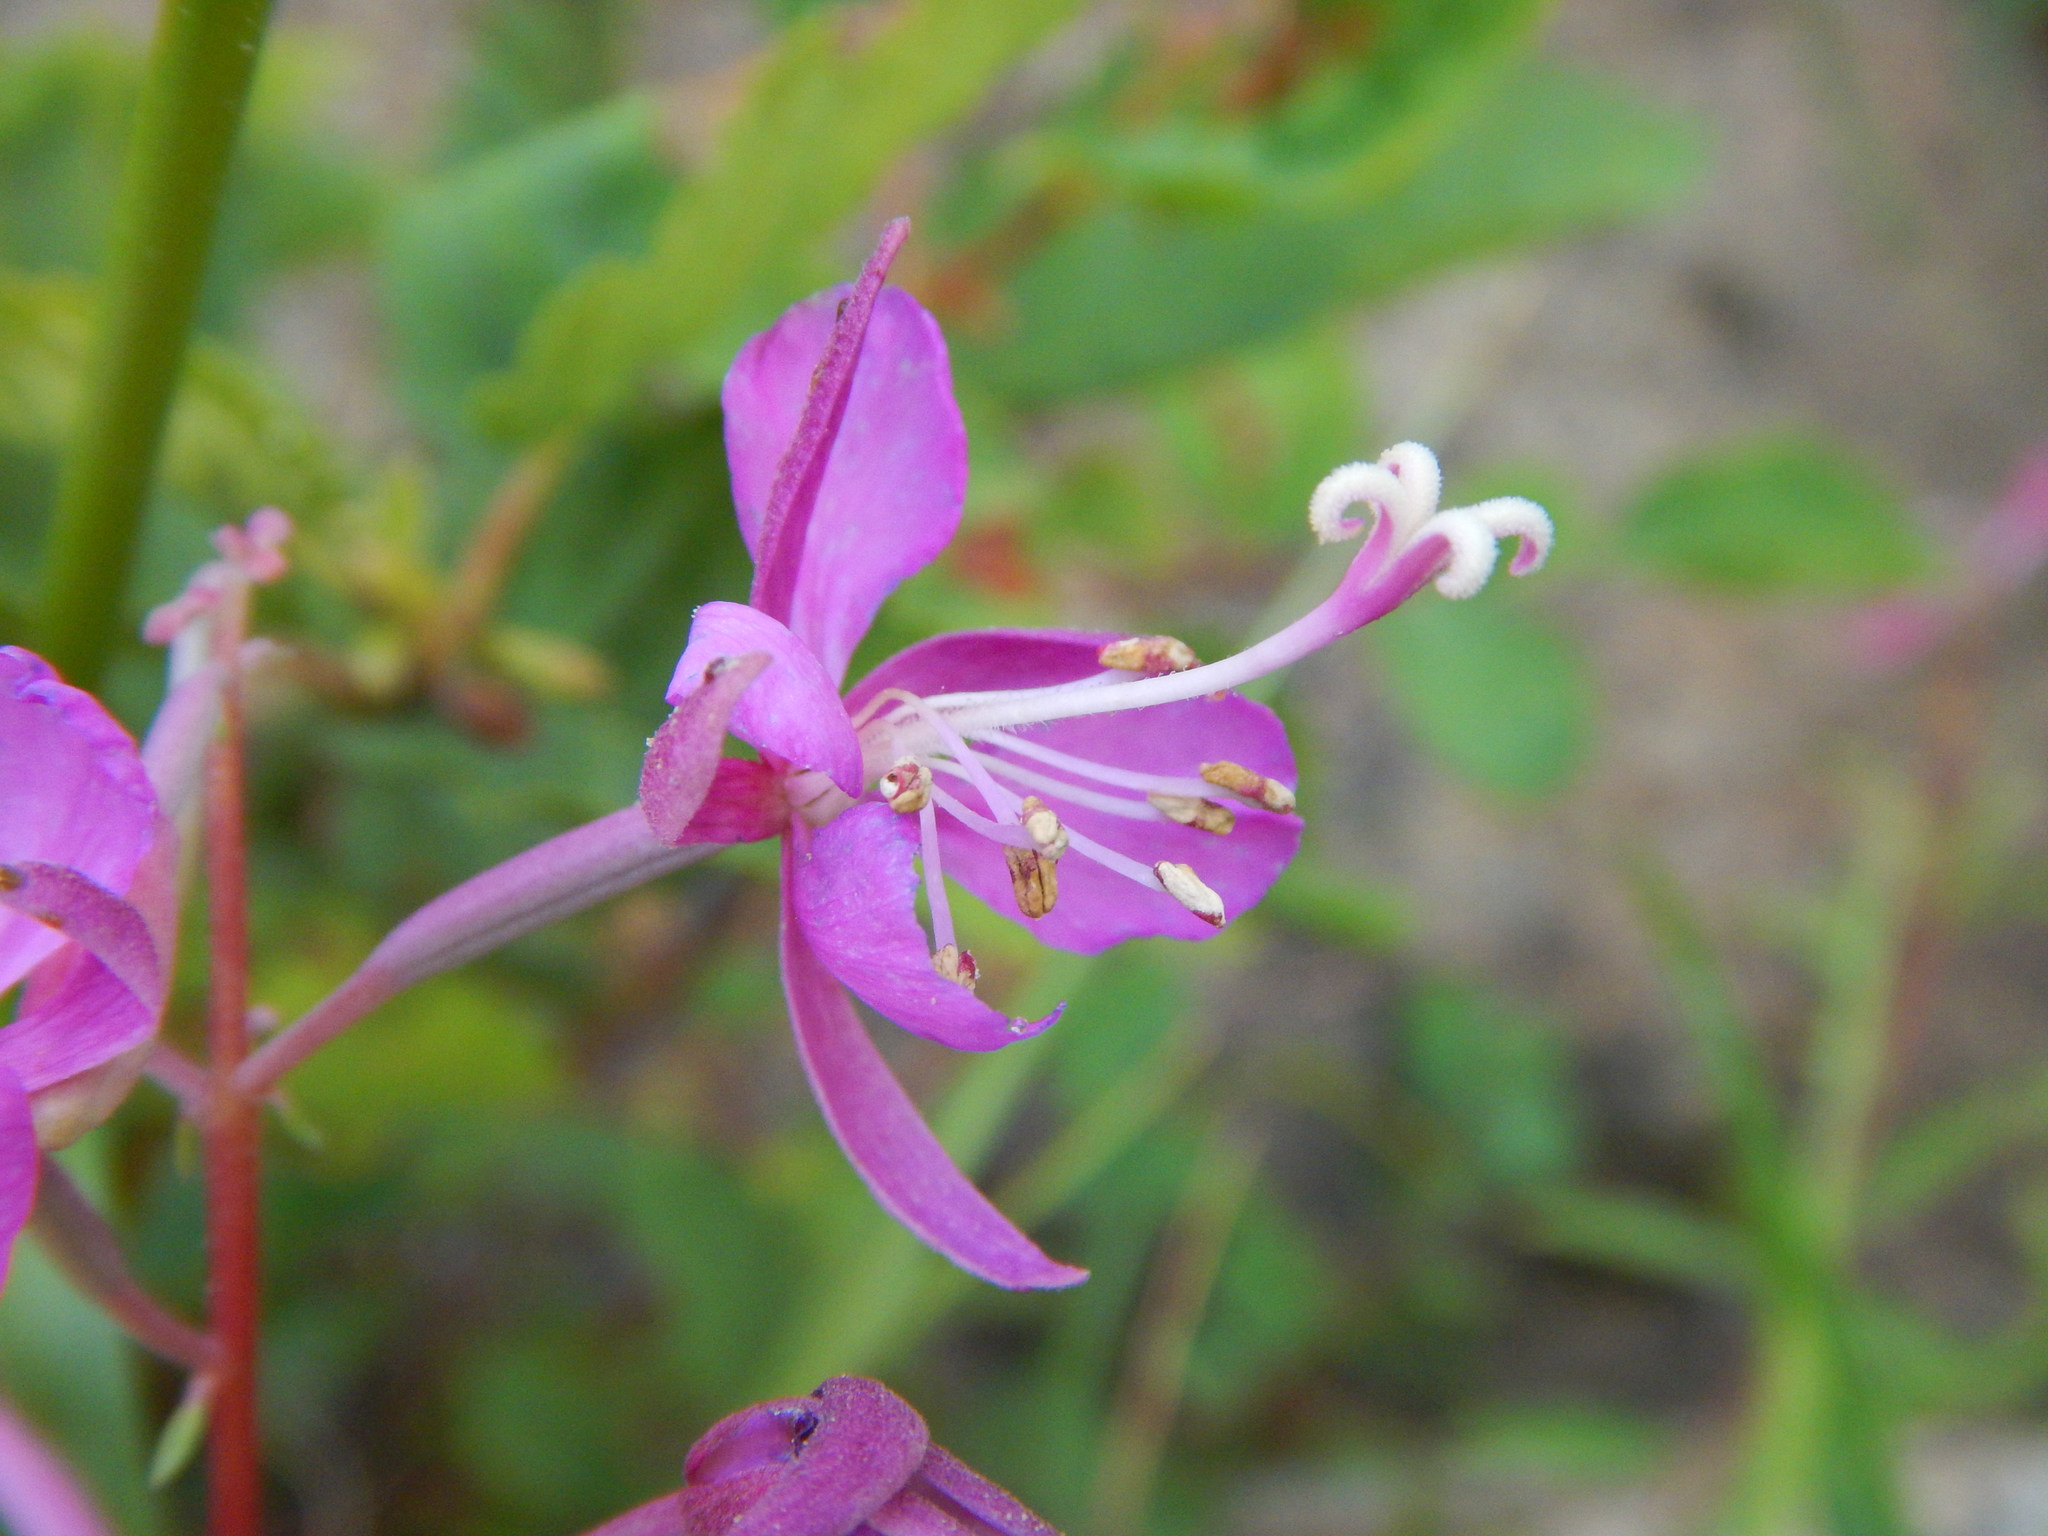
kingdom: Plantae
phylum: Tracheophyta
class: Magnoliopsida
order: Myrtales
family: Onagraceae
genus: Chamaenerion
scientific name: Chamaenerion angustifolium
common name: Fireweed
